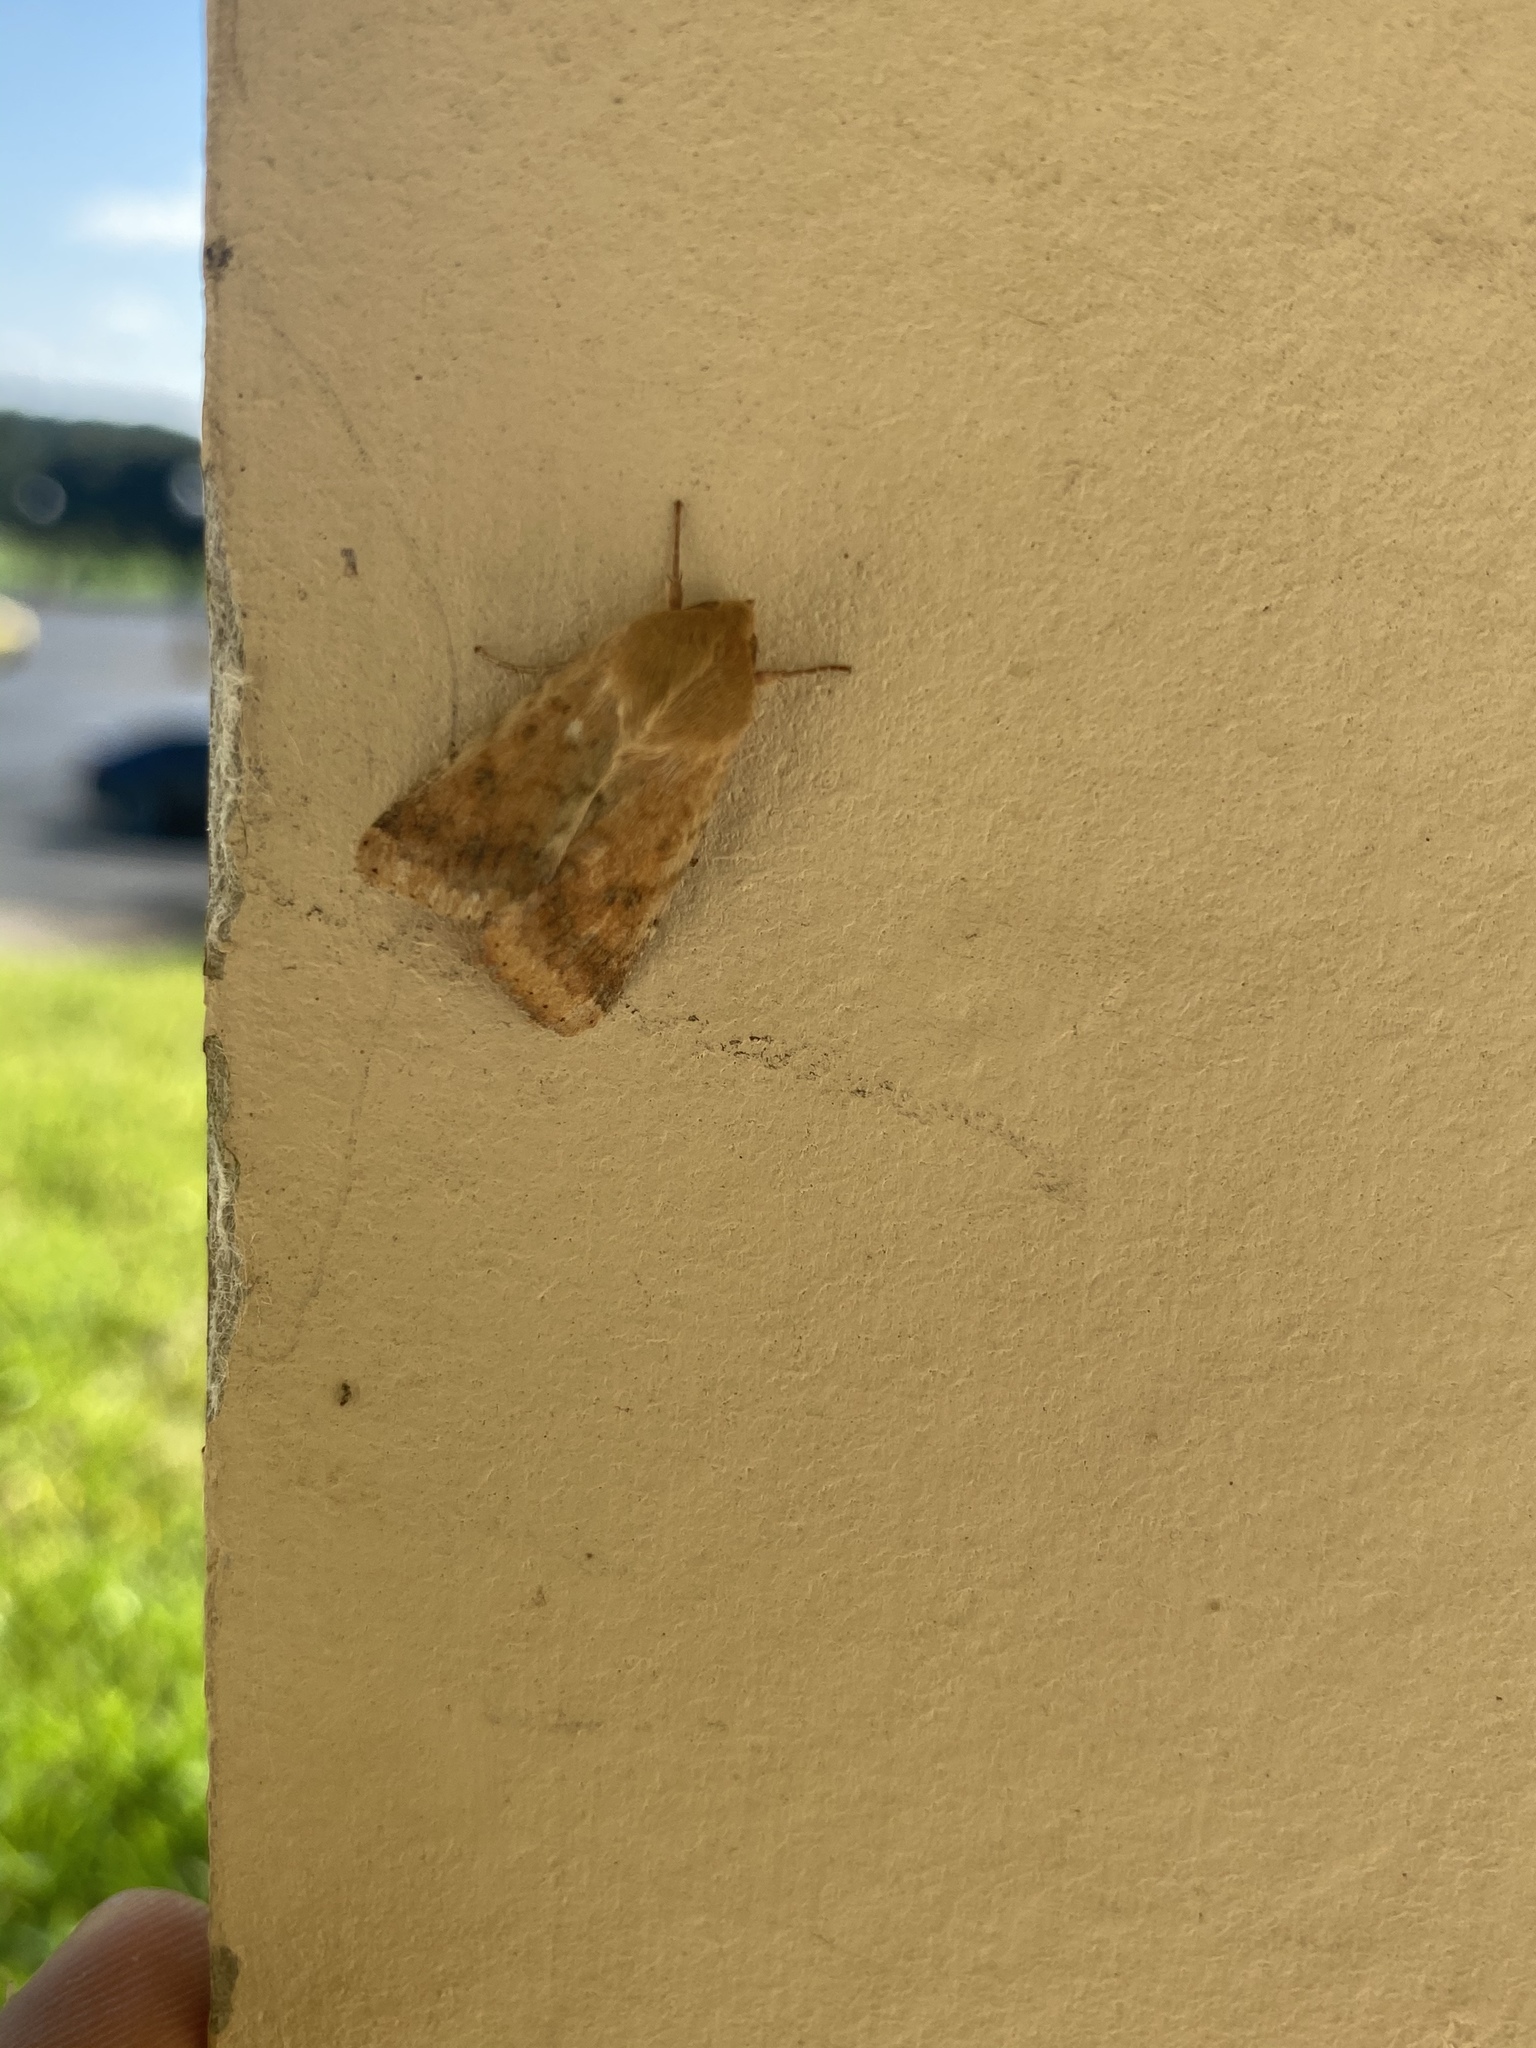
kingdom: Animalia
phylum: Arthropoda
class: Insecta
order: Lepidoptera
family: Noctuidae
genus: Helicoverpa
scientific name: Helicoverpa zea
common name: Bollworm
